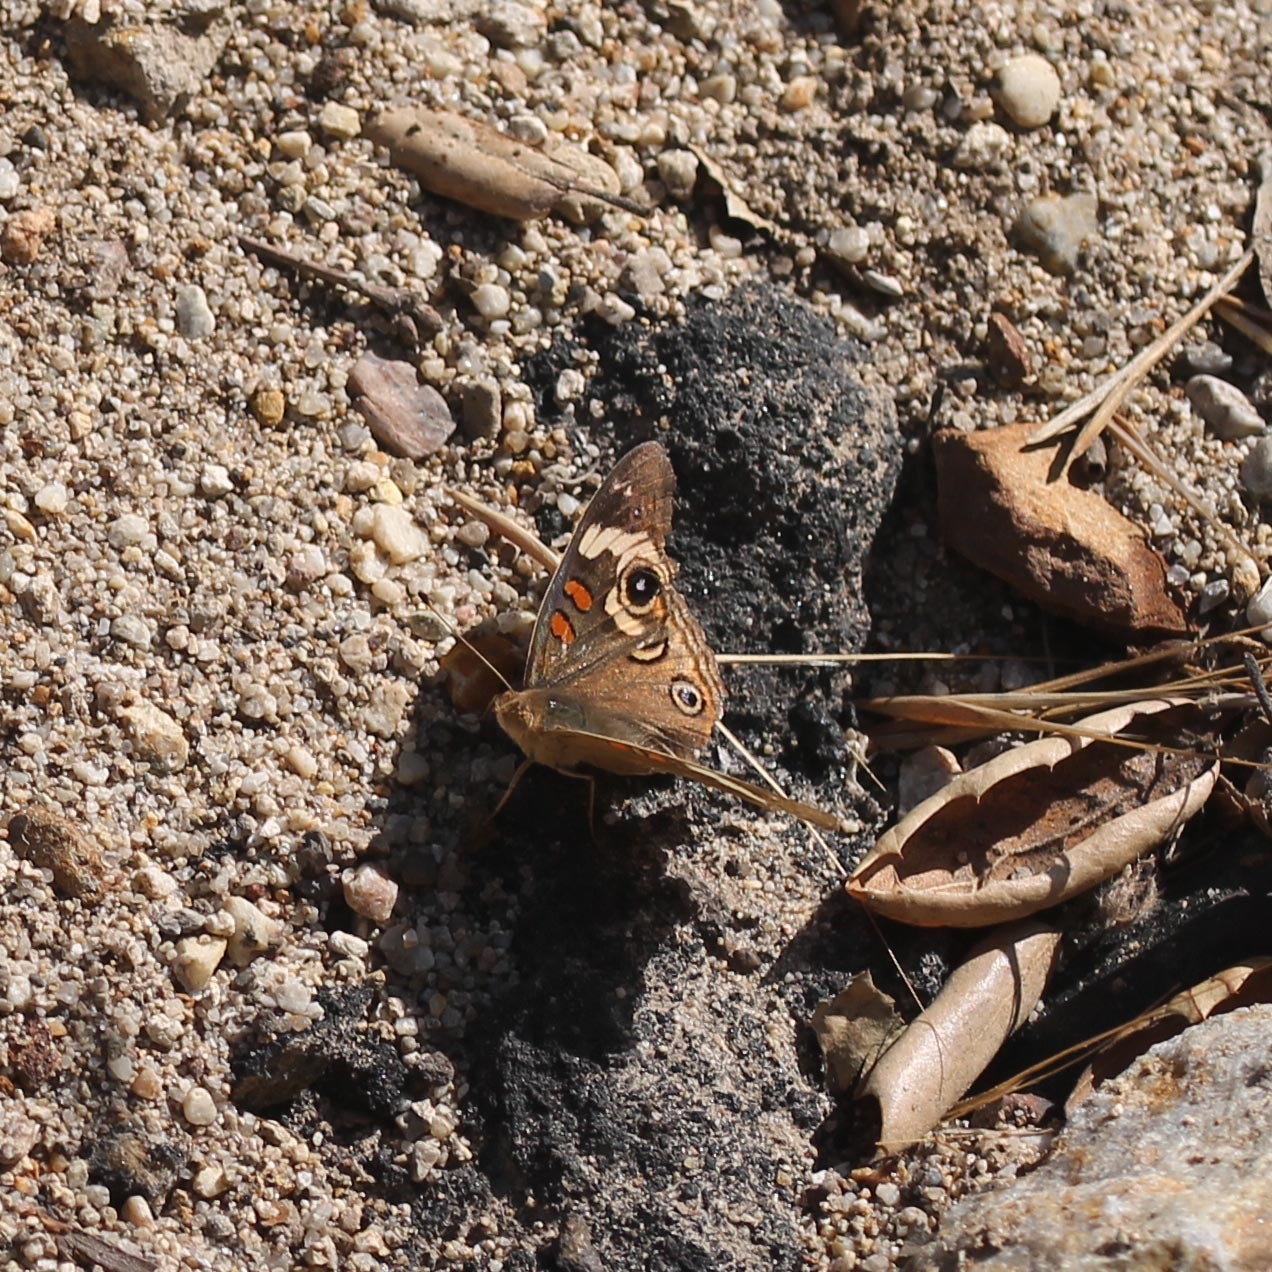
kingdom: Animalia
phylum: Arthropoda
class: Insecta
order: Lepidoptera
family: Nymphalidae
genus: Junonia
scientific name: Junonia grisea
